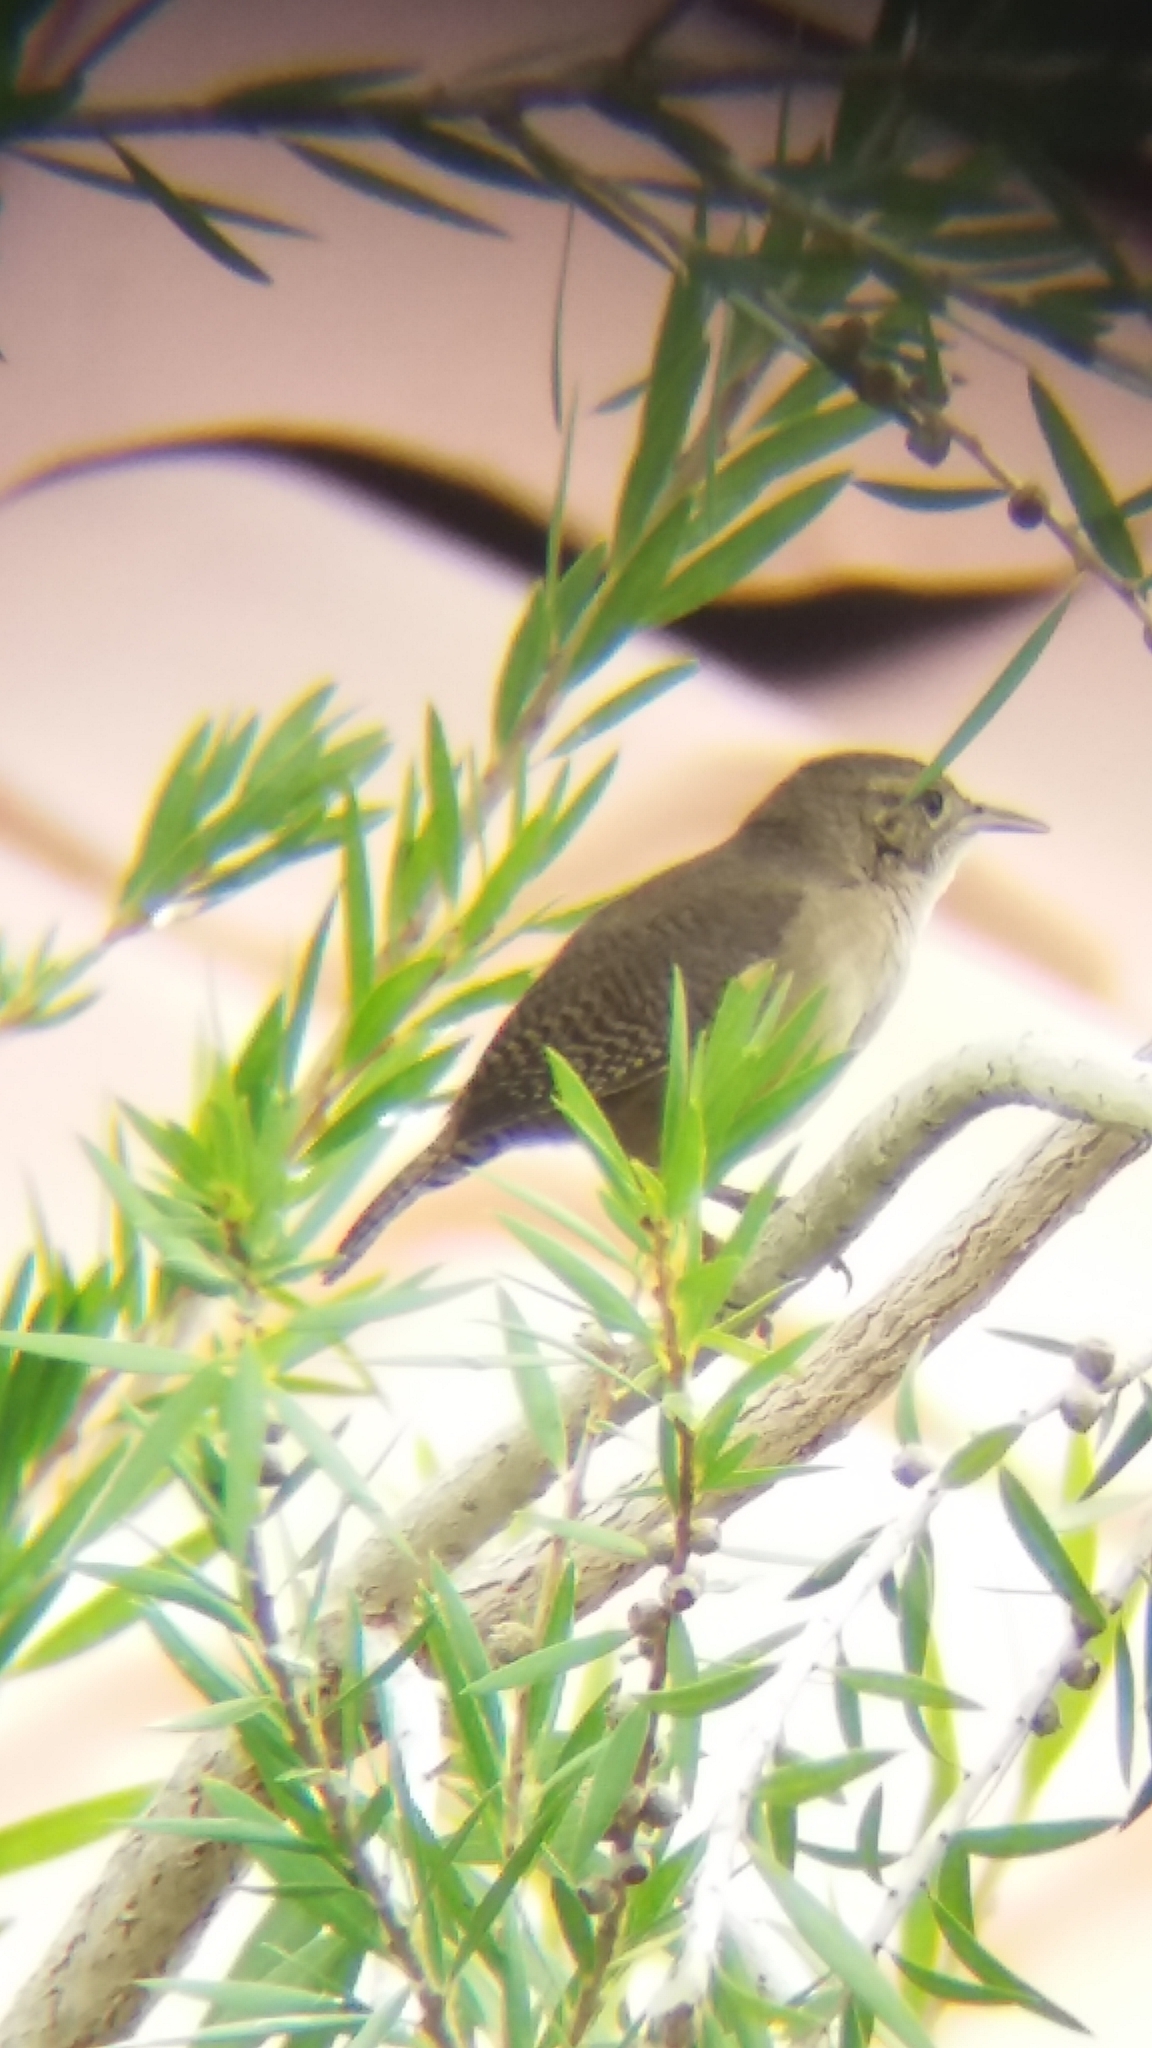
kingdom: Animalia
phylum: Chordata
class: Aves
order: Passeriformes
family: Troglodytidae
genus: Troglodytes
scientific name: Troglodytes aedon
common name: House wren
